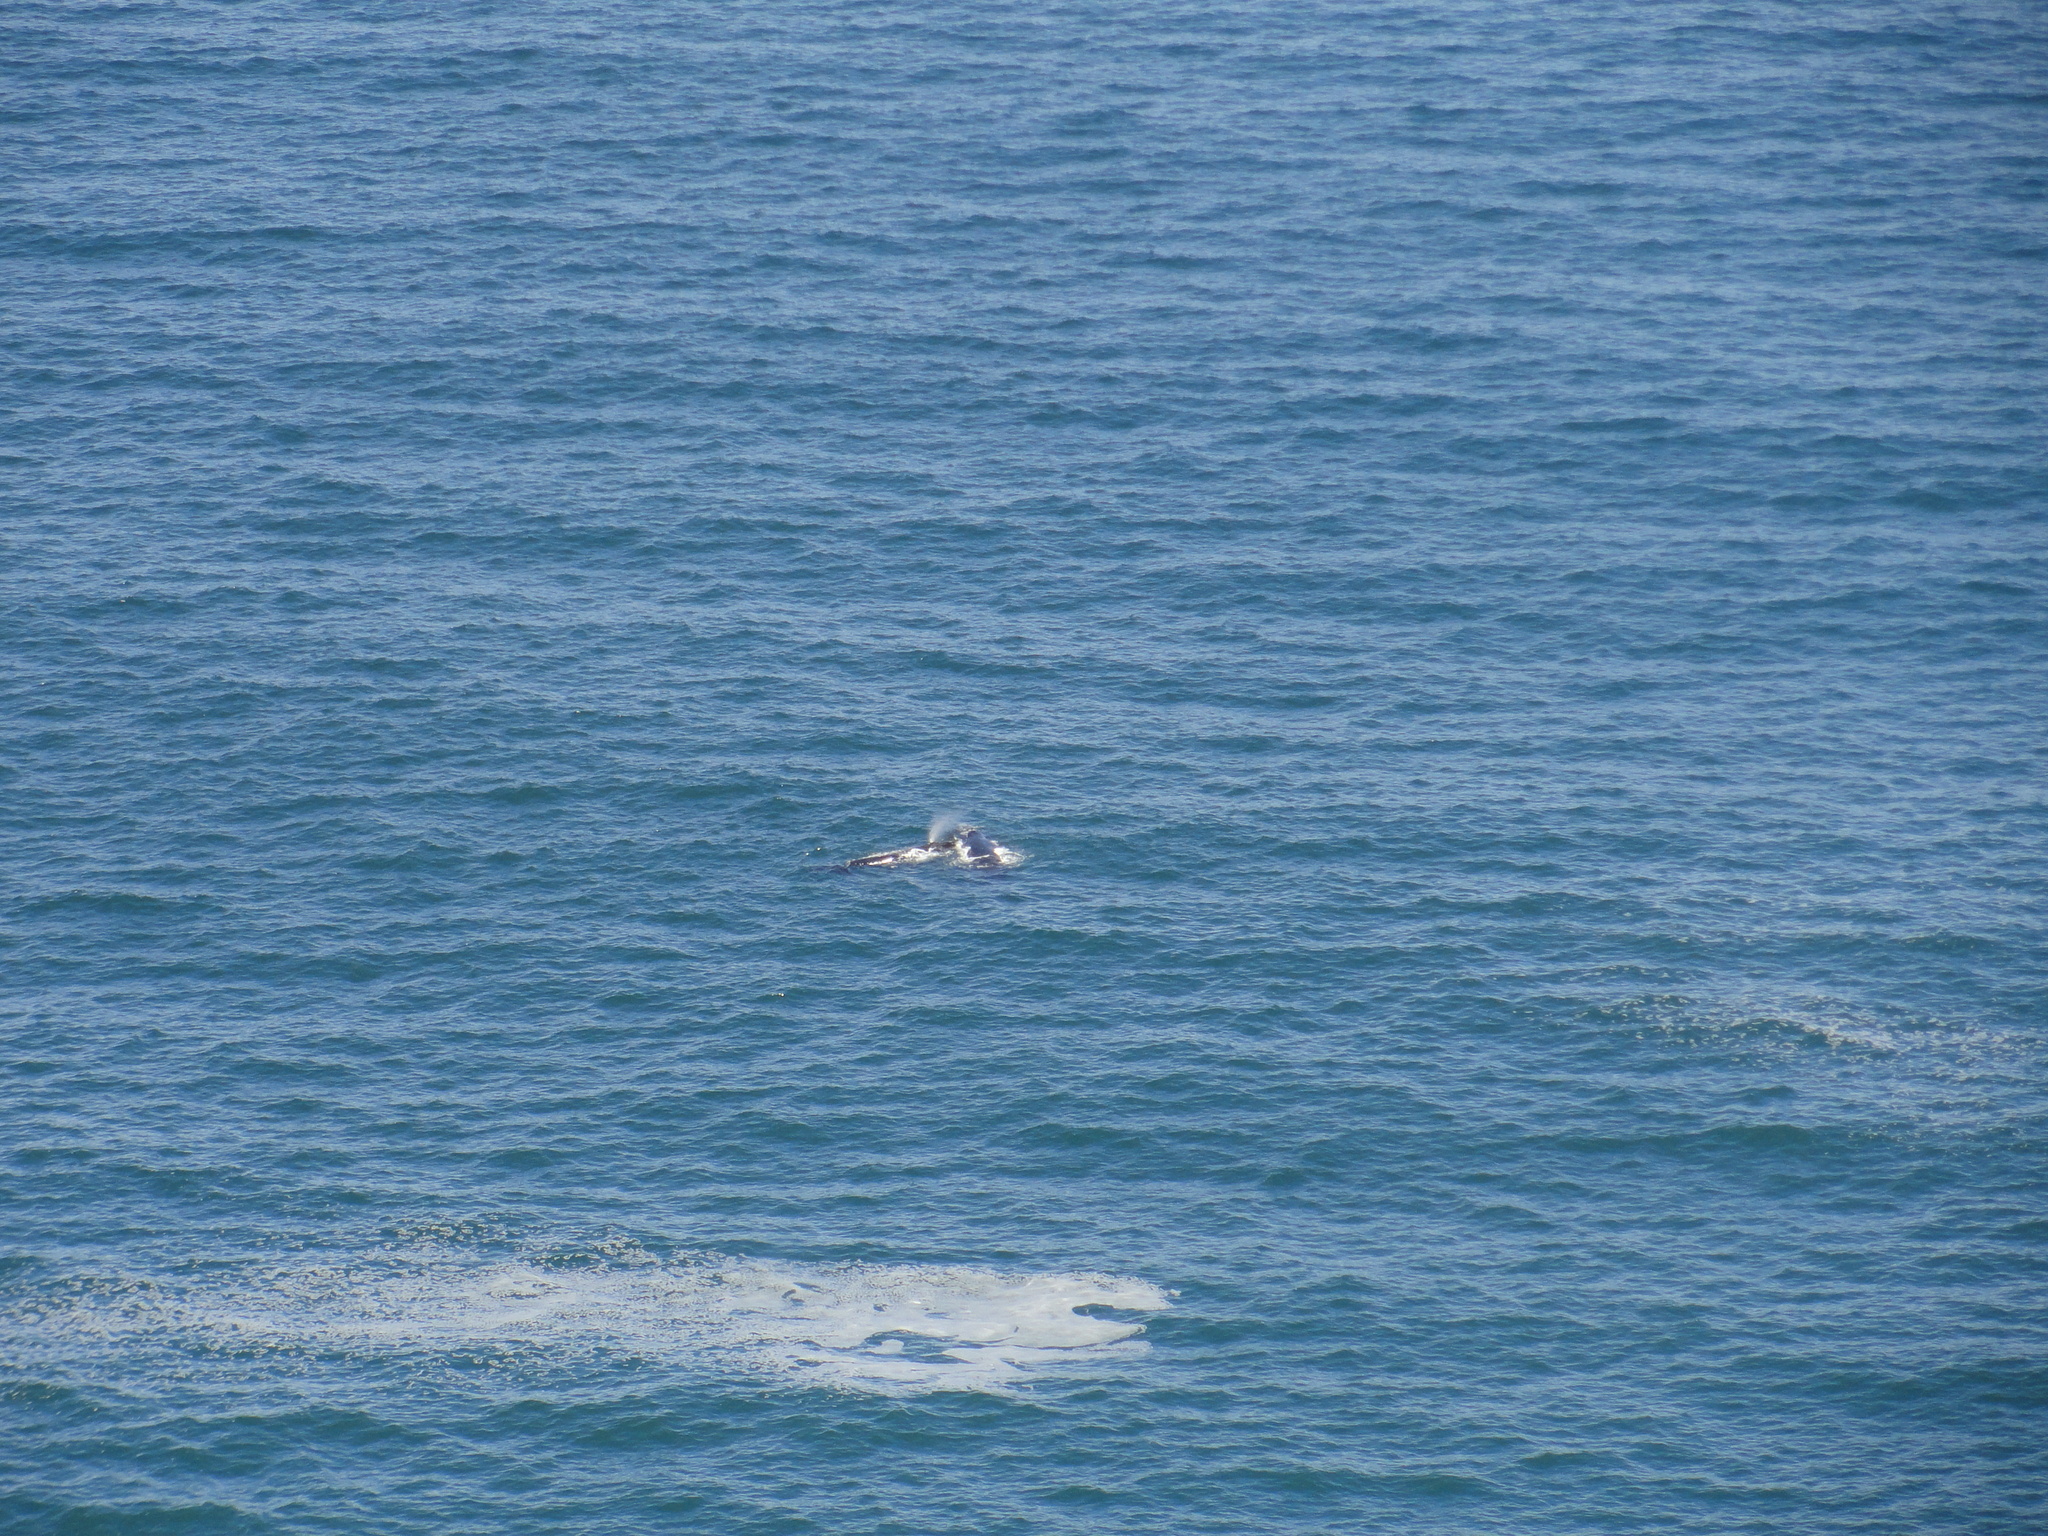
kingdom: Animalia
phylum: Chordata
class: Mammalia
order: Cetacea
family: Balaenidae
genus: Eubalaena
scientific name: Eubalaena australis
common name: Southern right whale
